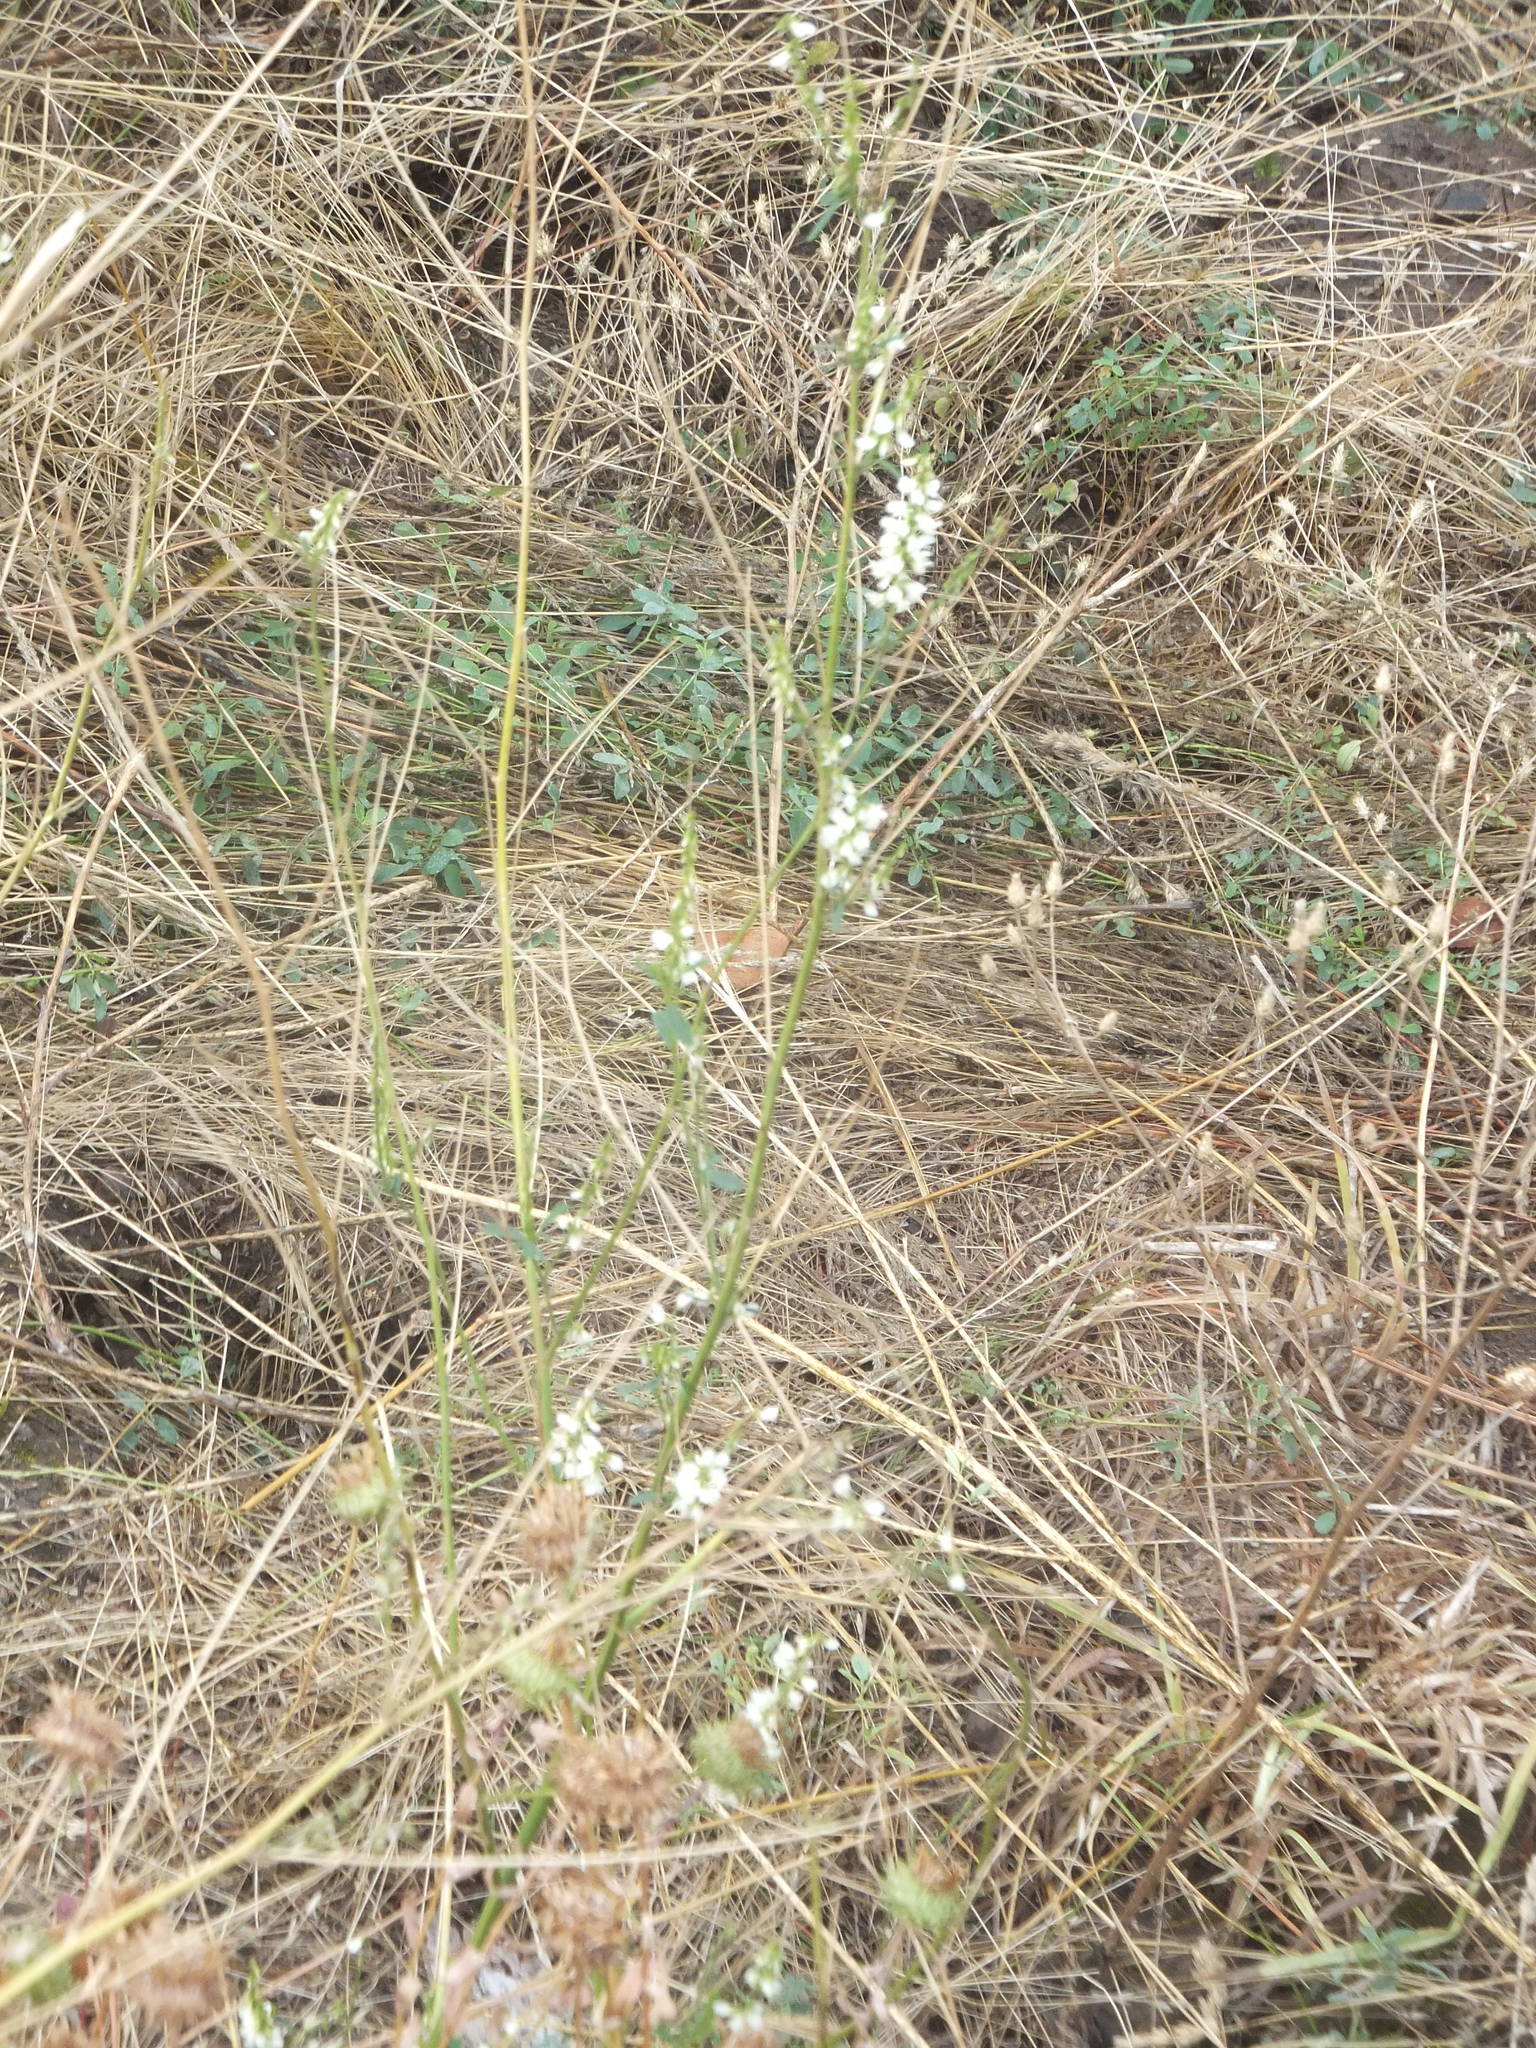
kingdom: Plantae
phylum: Tracheophyta
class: Magnoliopsida
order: Fabales
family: Fabaceae
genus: Melilotus
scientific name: Melilotus albus
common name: White melilot
